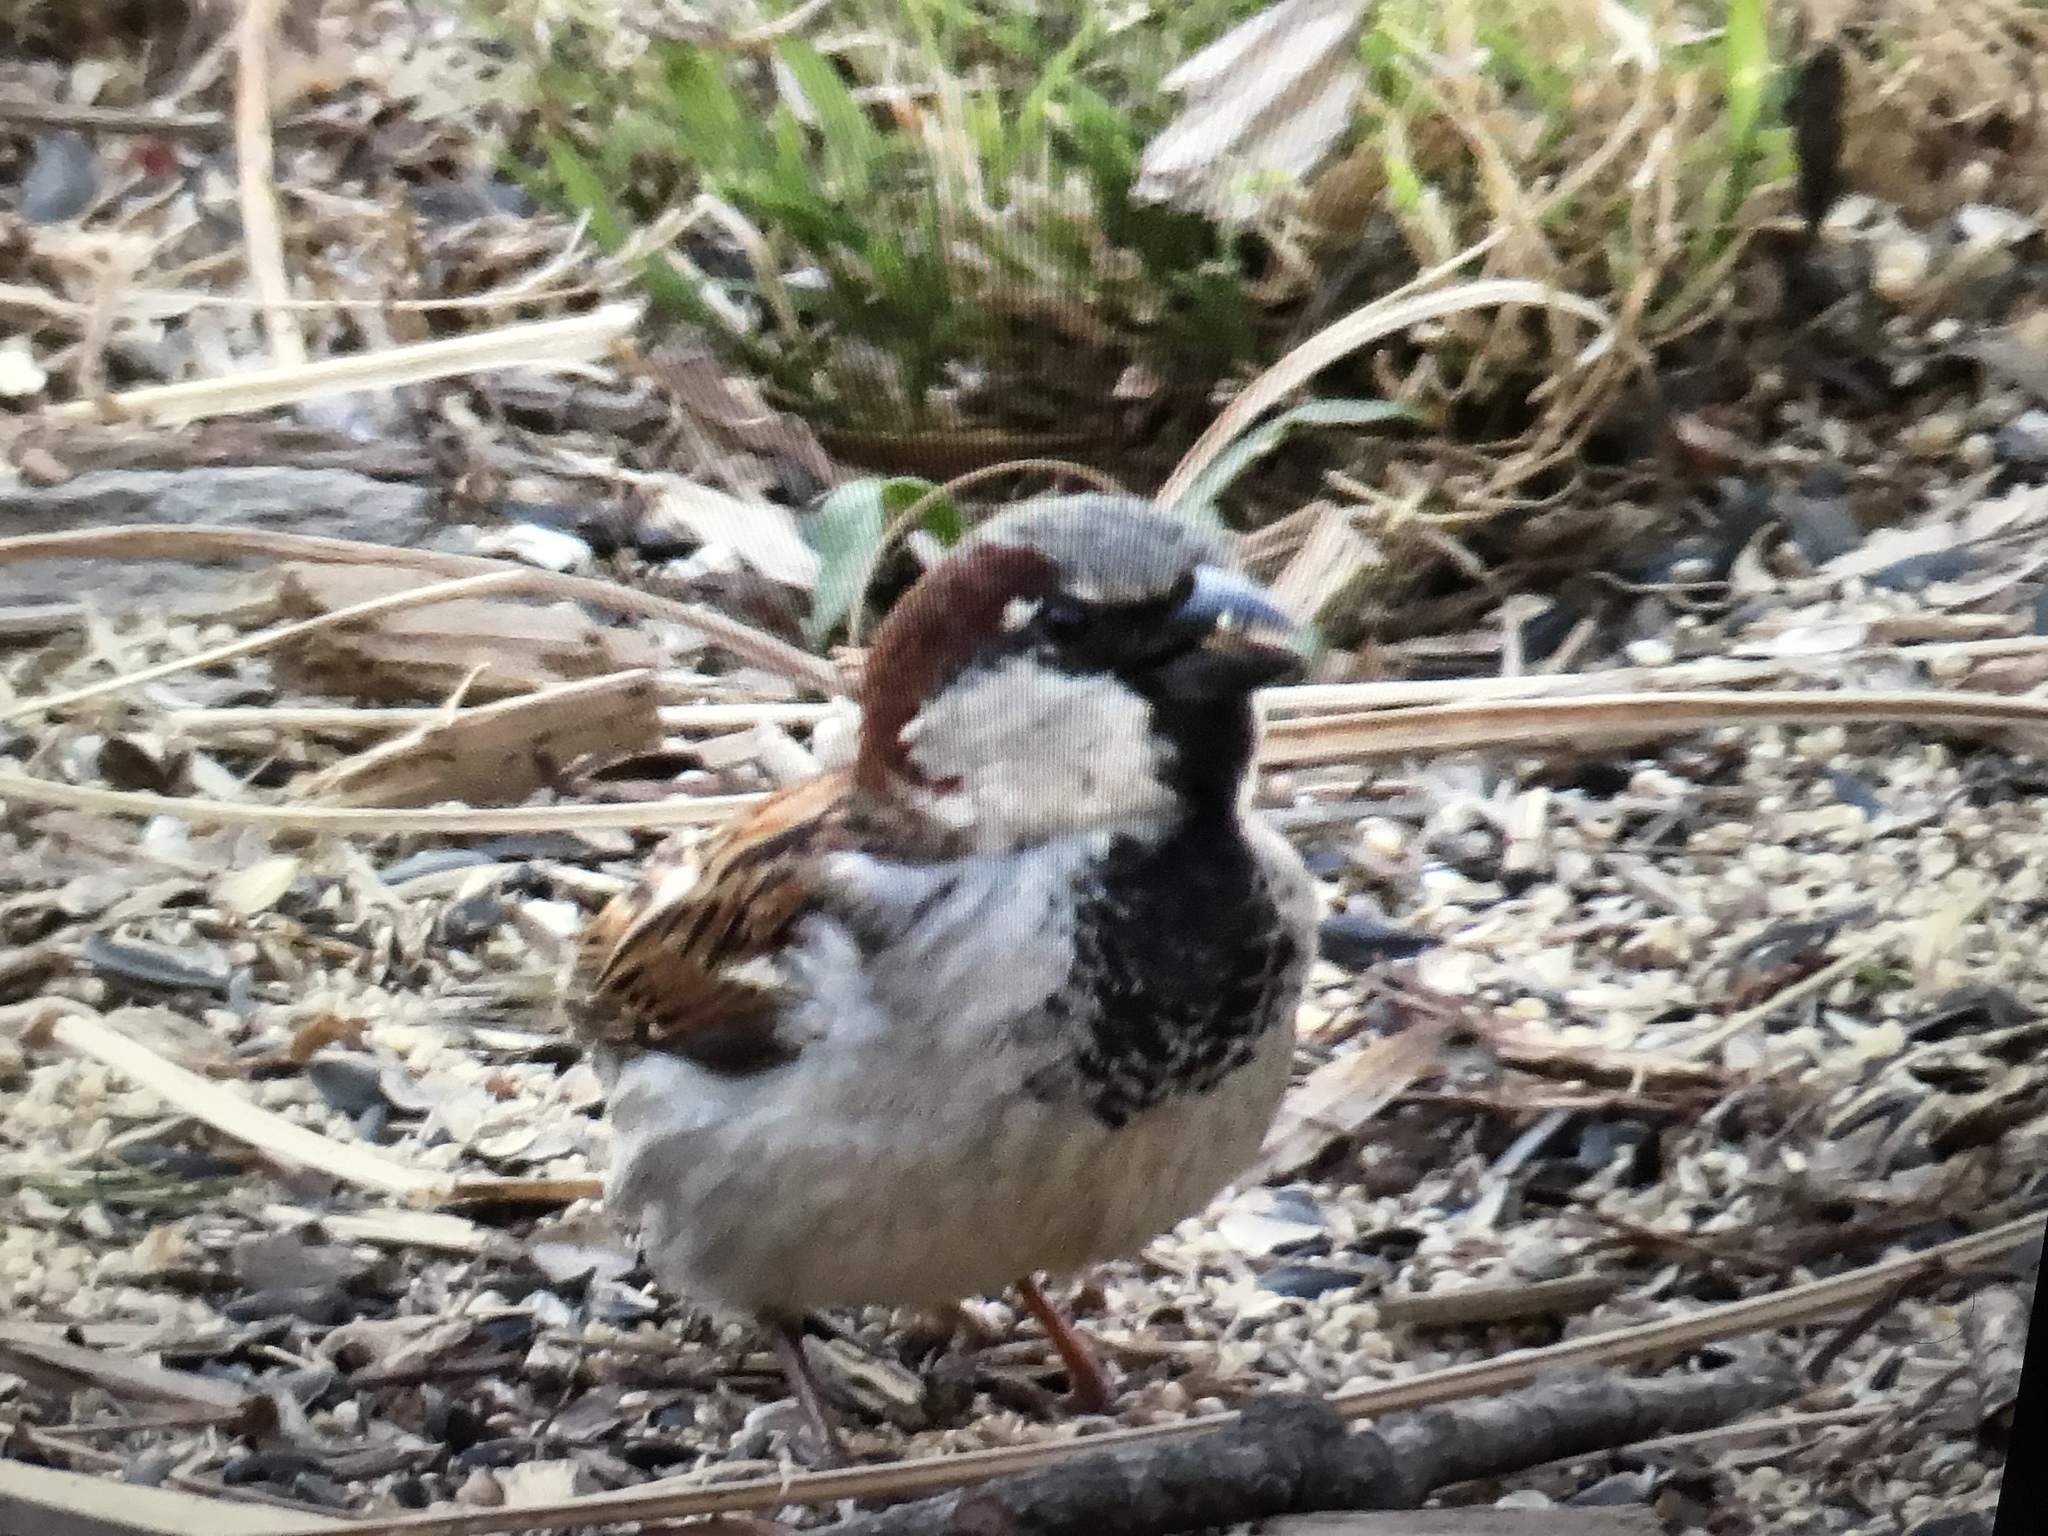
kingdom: Animalia
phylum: Chordata
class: Aves
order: Passeriformes
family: Passeridae
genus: Passer
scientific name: Passer domesticus
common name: House sparrow
